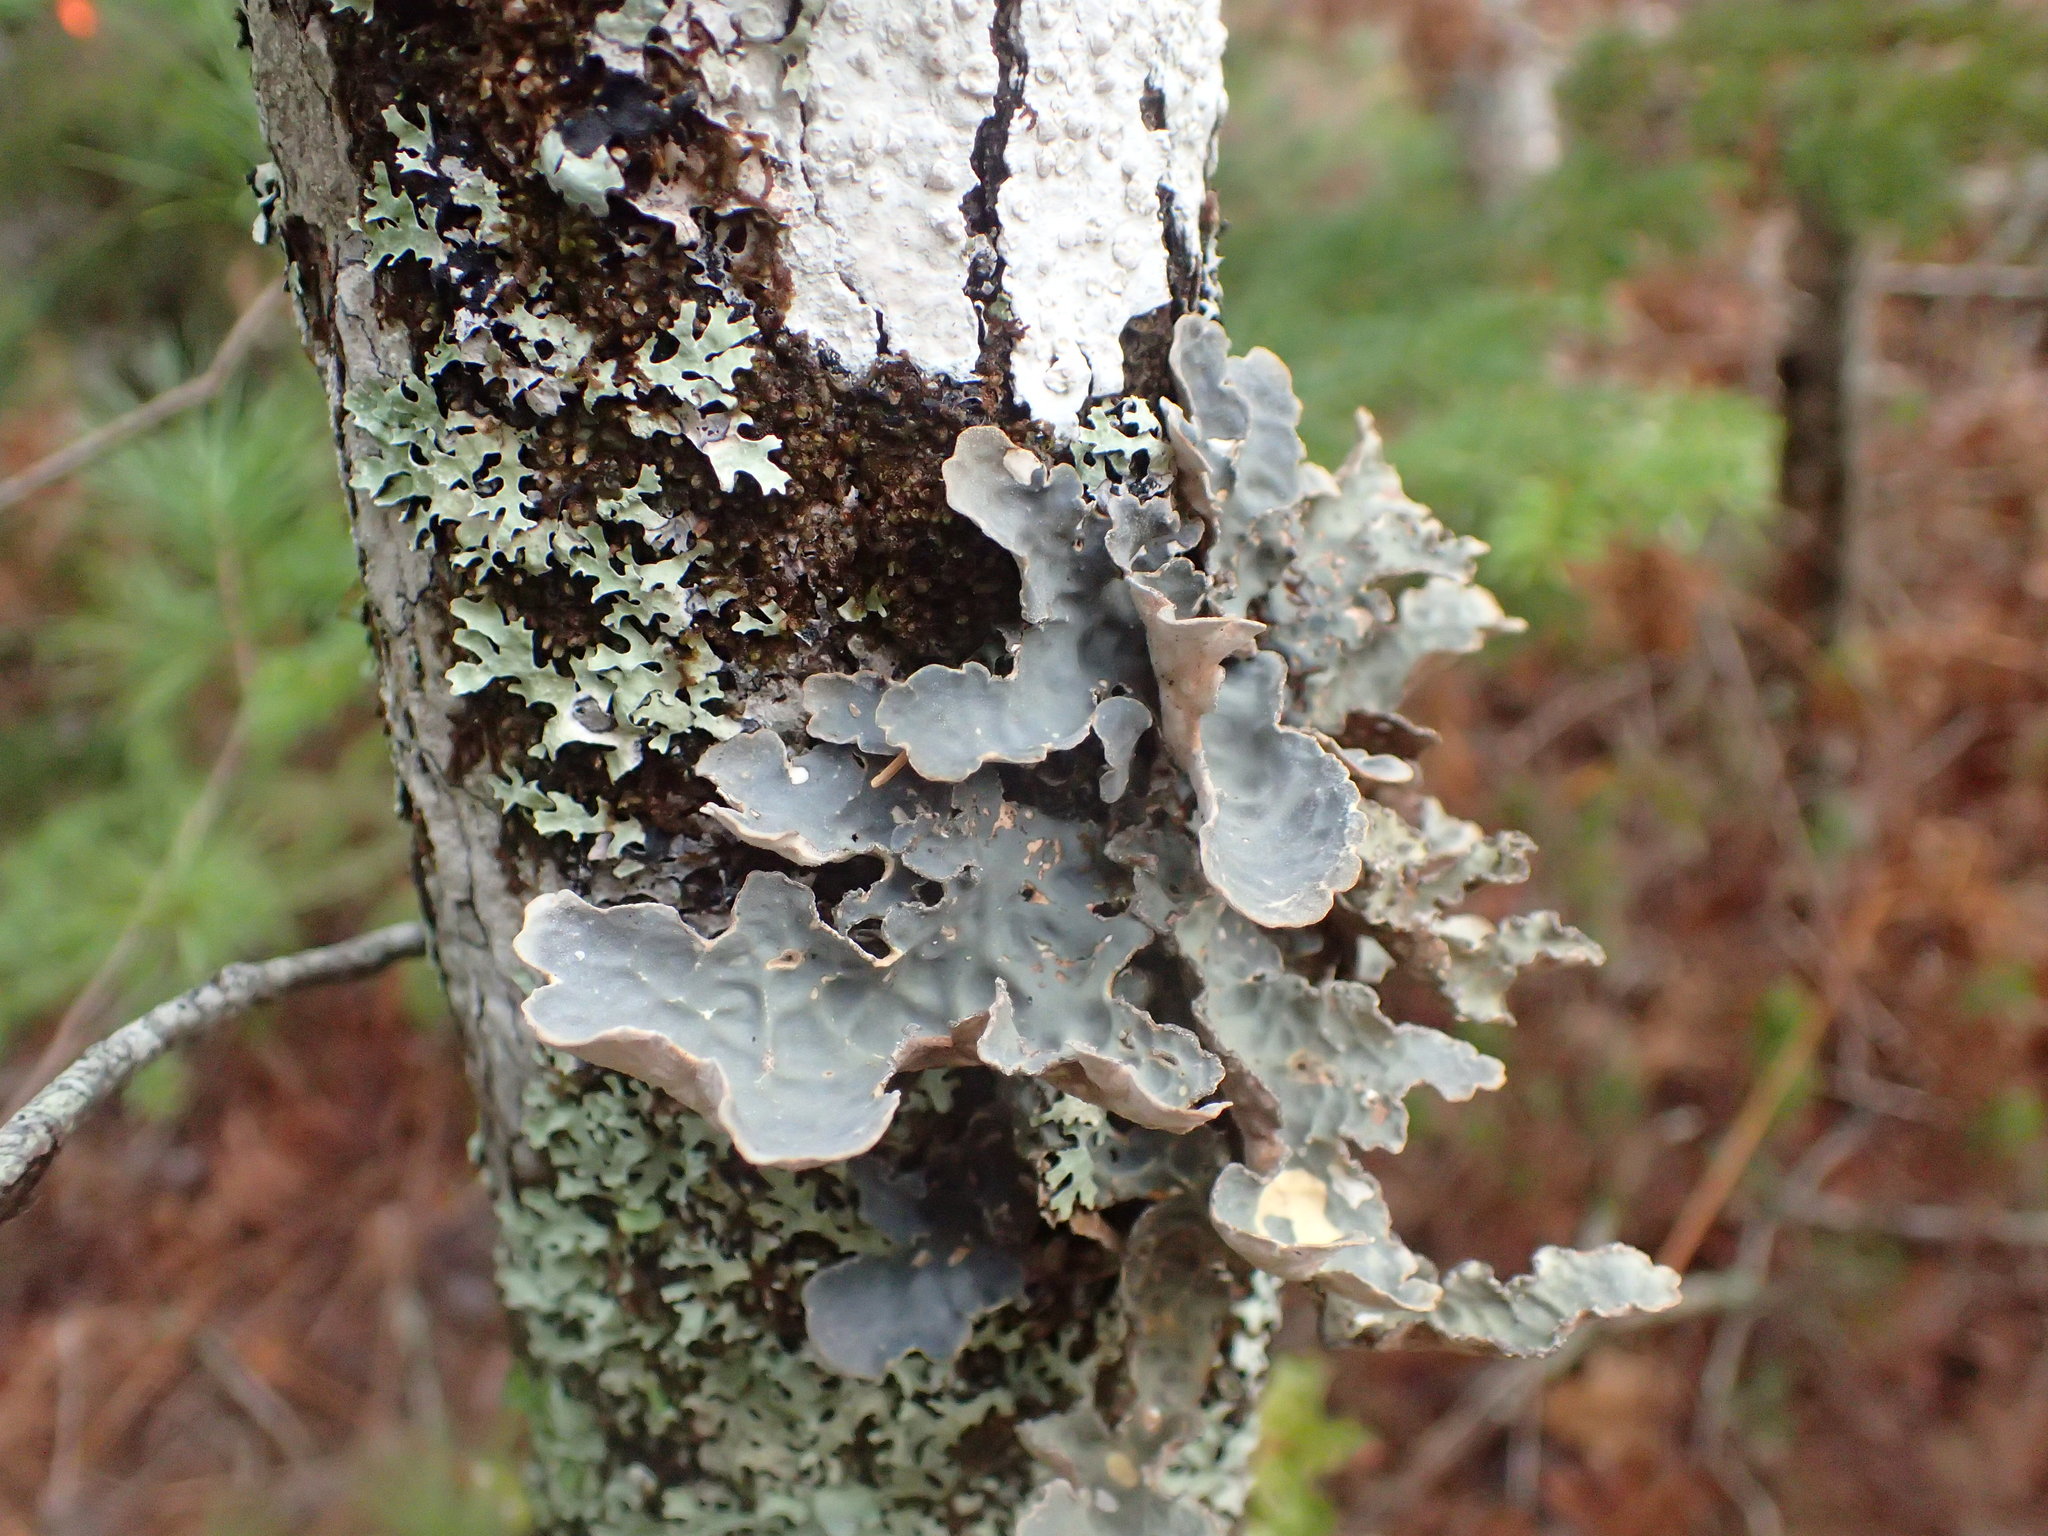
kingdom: Fungi
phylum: Ascomycota
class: Lecanoromycetes
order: Peltigerales
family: Lobariaceae
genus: Lobarina
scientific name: Lobarina scrobiculata
